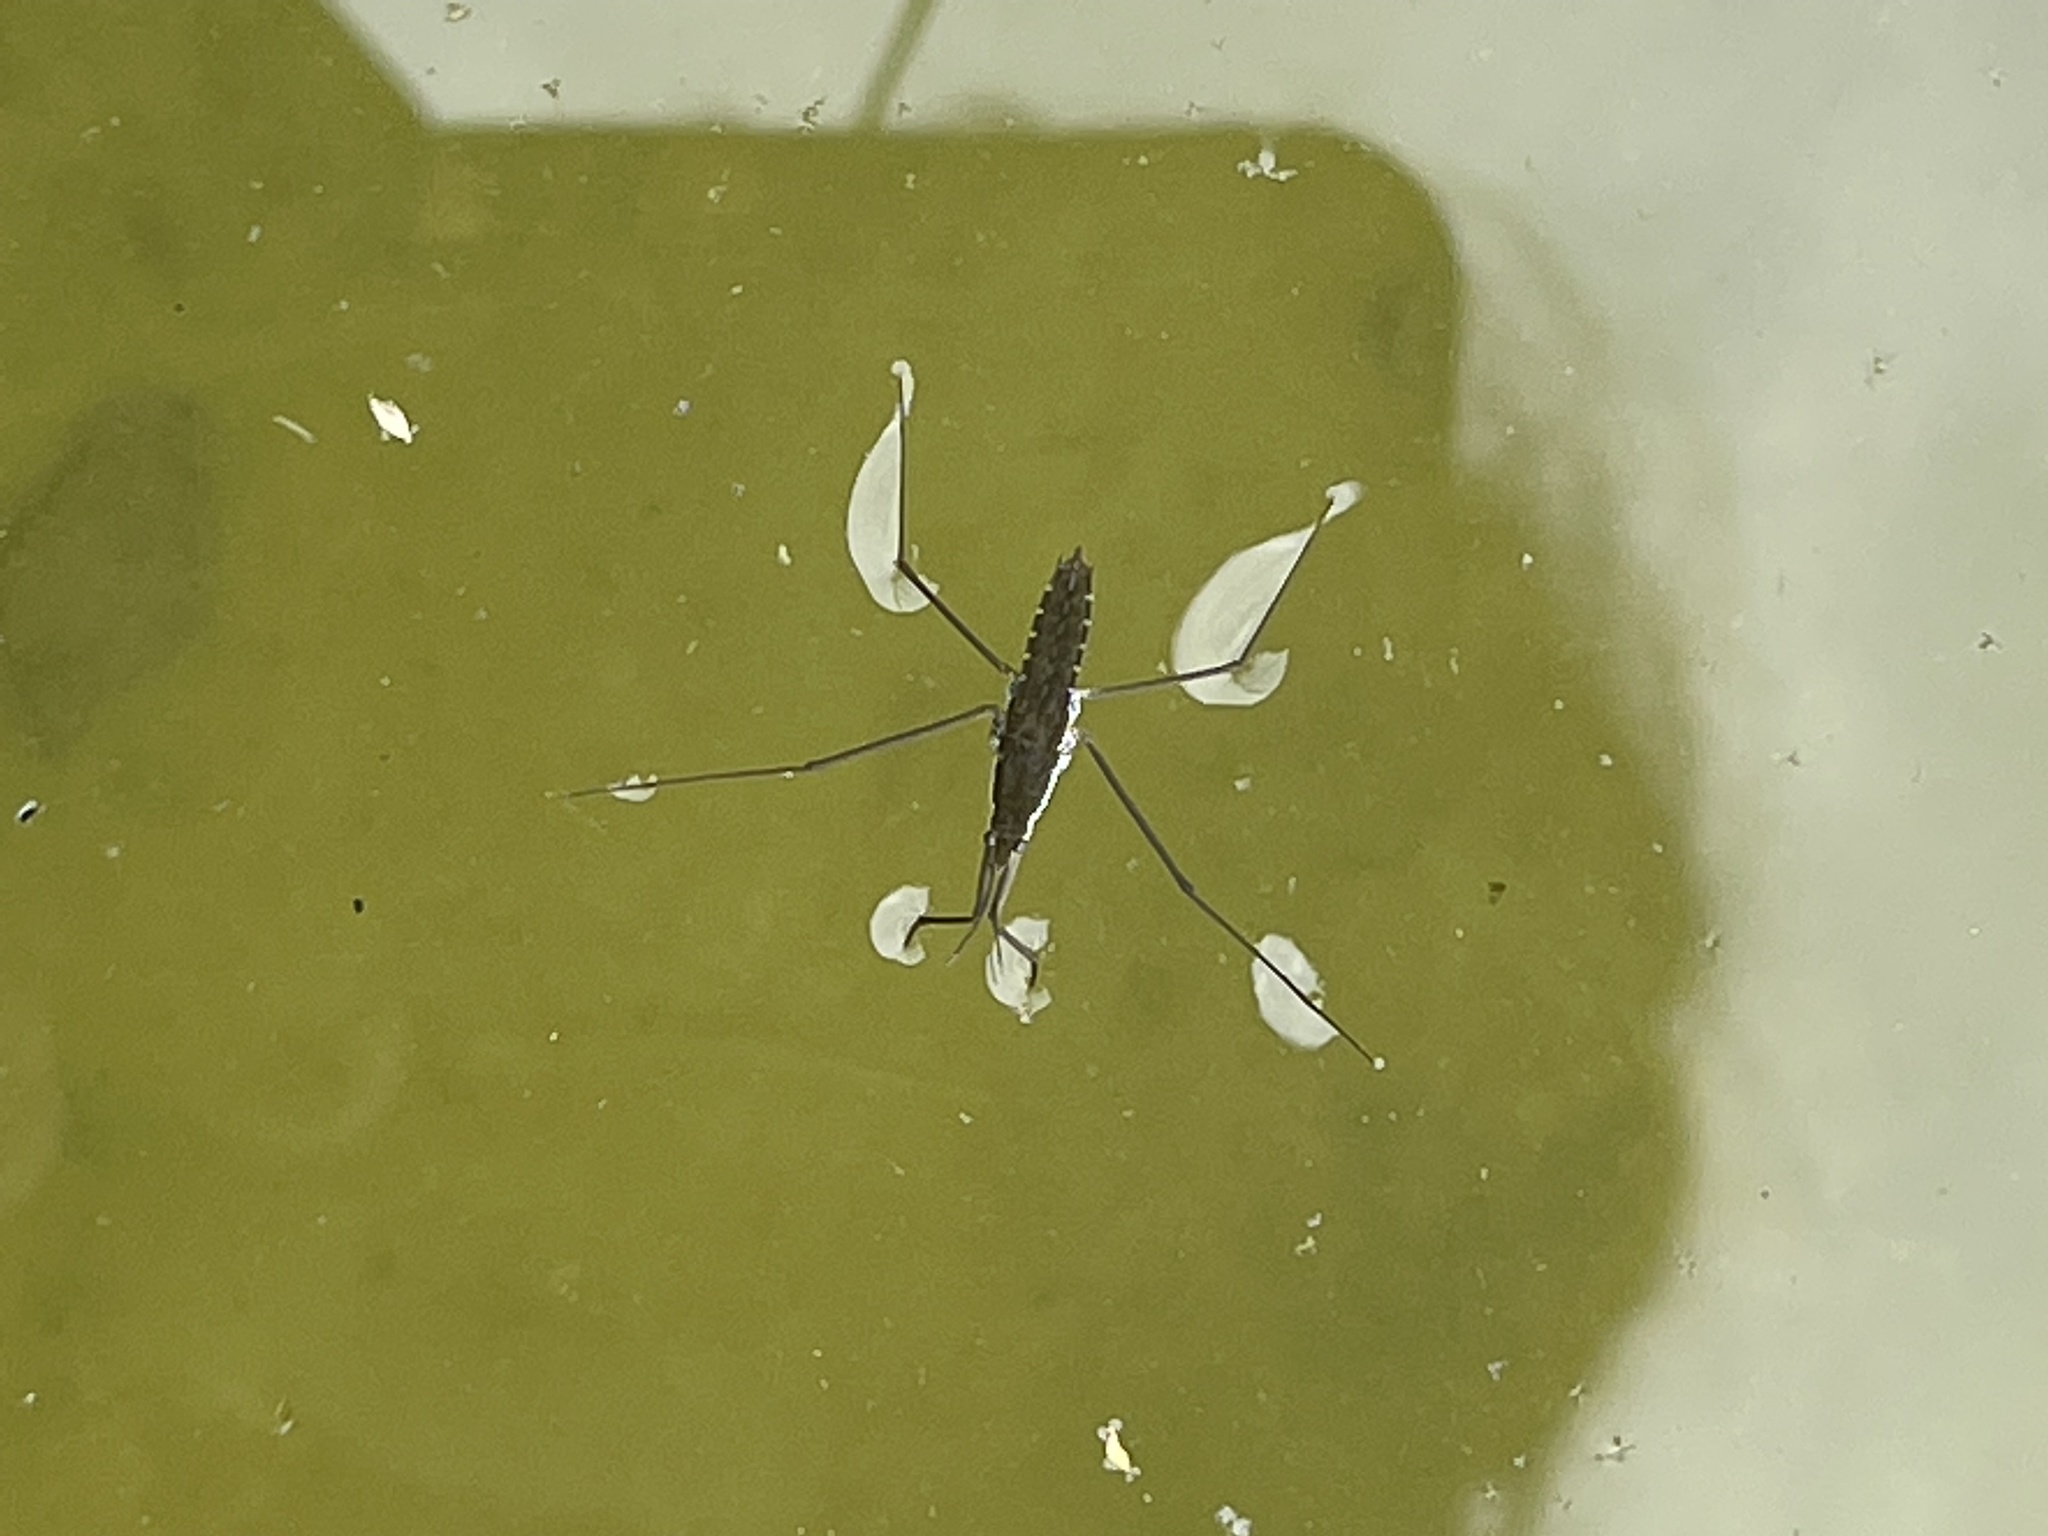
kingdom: Animalia
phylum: Arthropoda
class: Insecta
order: Hemiptera
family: Gerridae
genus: Aquarius
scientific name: Aquarius remigis
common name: Common water strider
